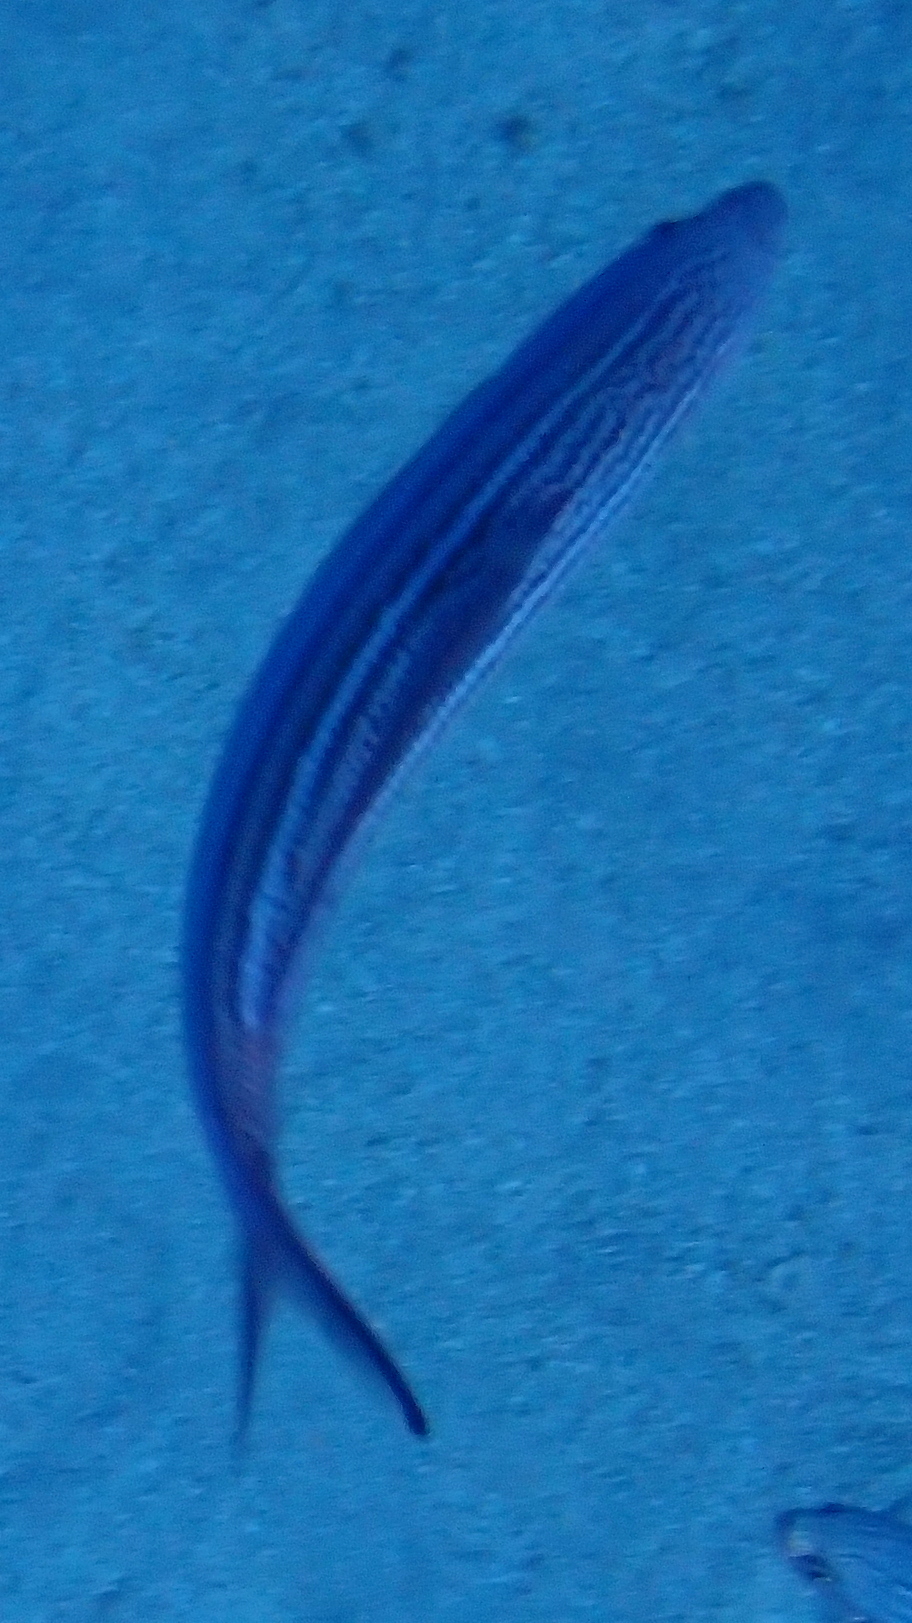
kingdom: Animalia
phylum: Chordata
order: Perciformes
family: Caesionidae
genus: Caesio
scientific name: Caesio striata
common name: Striated fusilier
